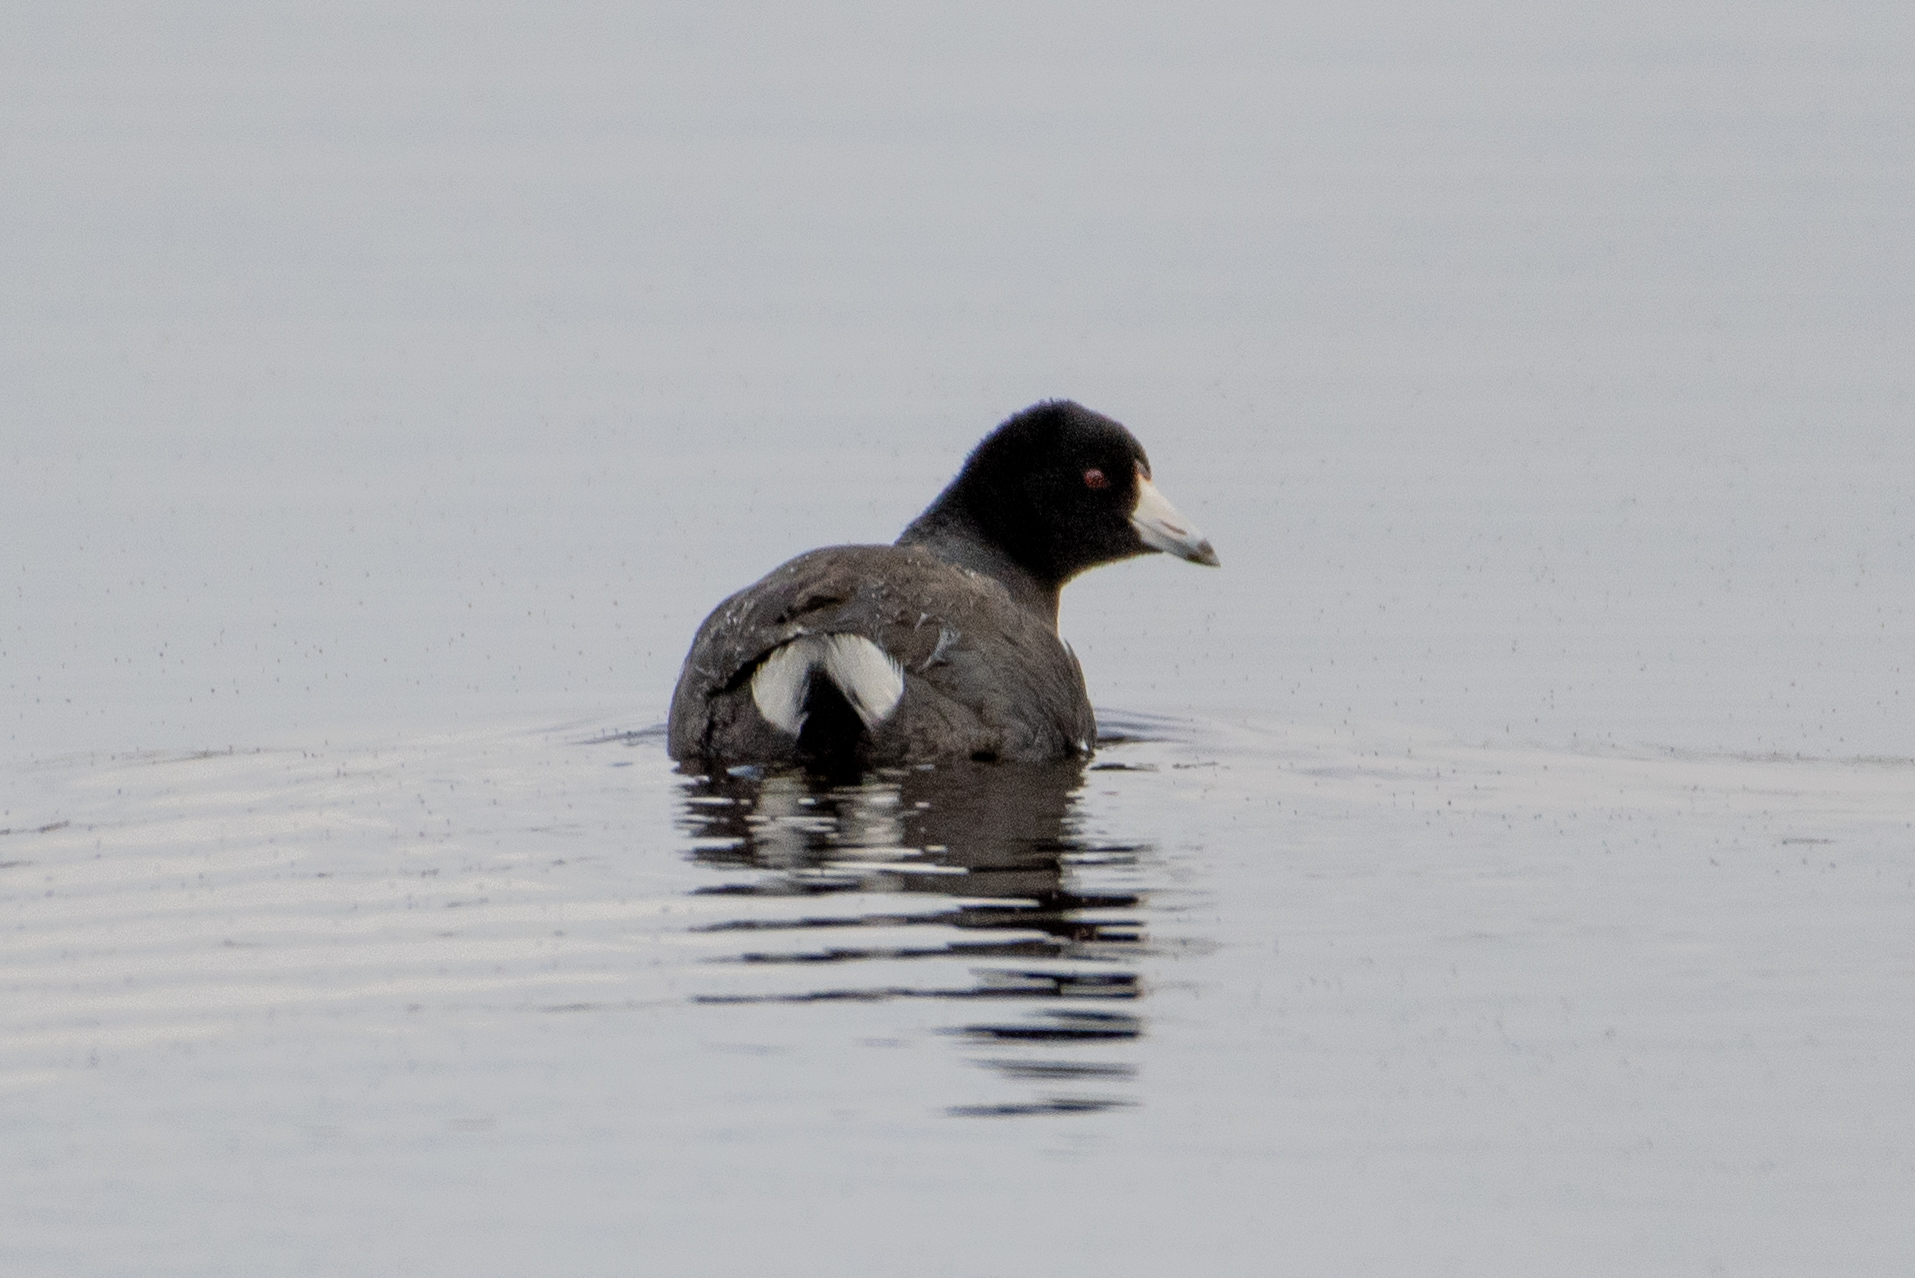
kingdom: Animalia
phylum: Chordata
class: Aves
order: Gruiformes
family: Rallidae
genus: Fulica
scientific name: Fulica americana
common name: American coot
